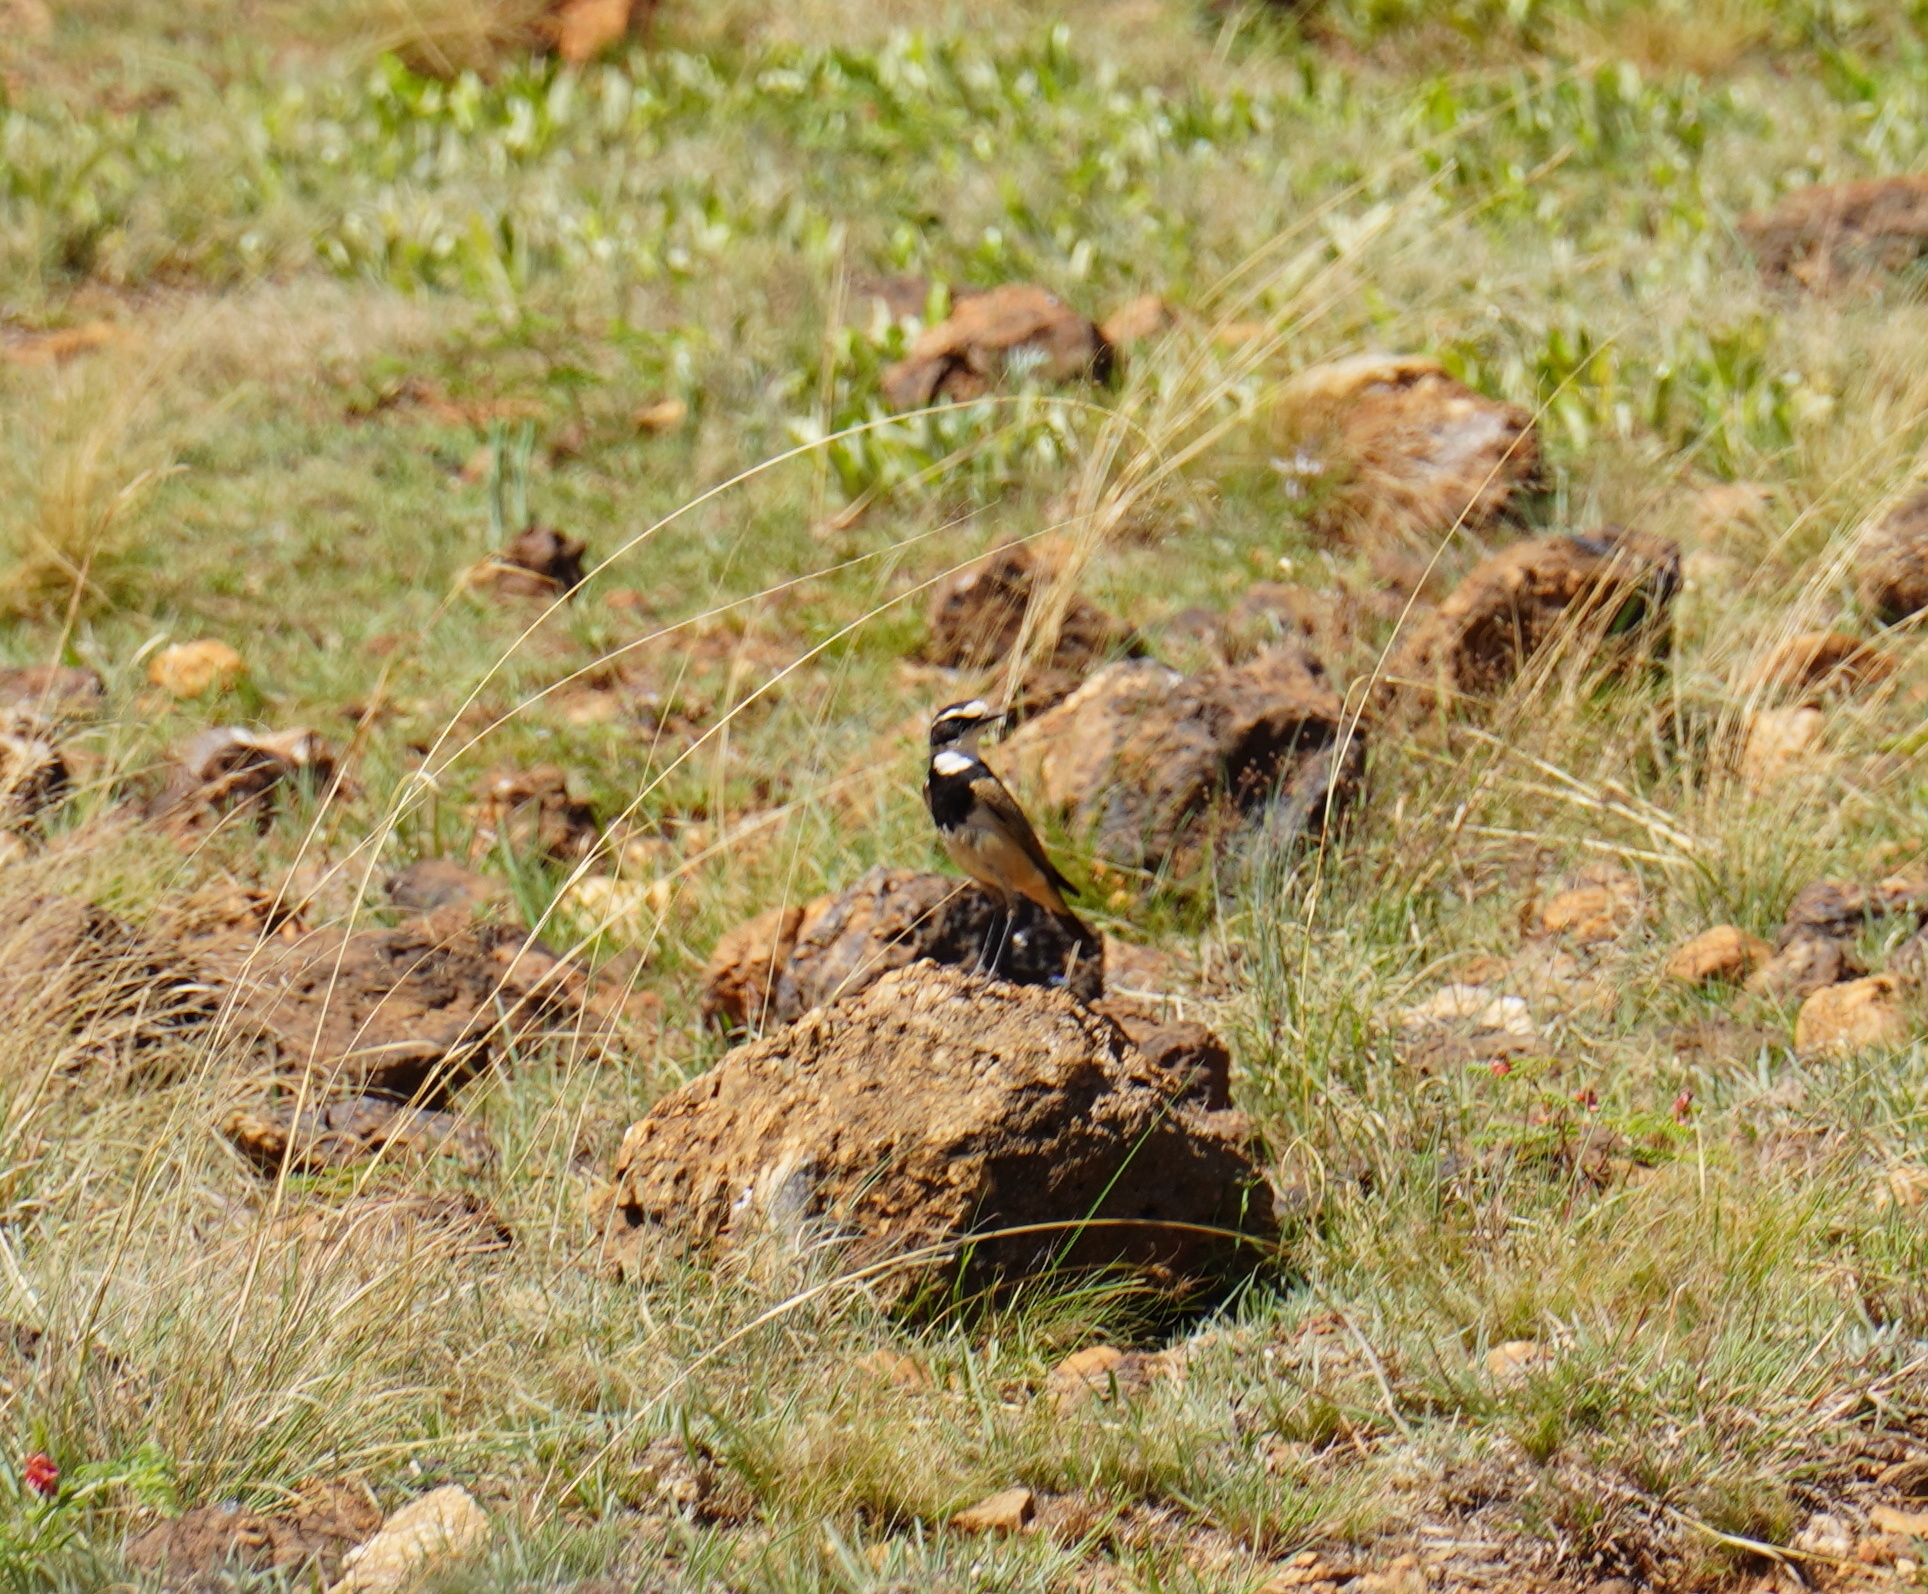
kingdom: Animalia
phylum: Chordata
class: Aves
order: Passeriformes
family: Muscicapidae
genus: Oenanthe
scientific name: Oenanthe pileata
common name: Capped wheatear
